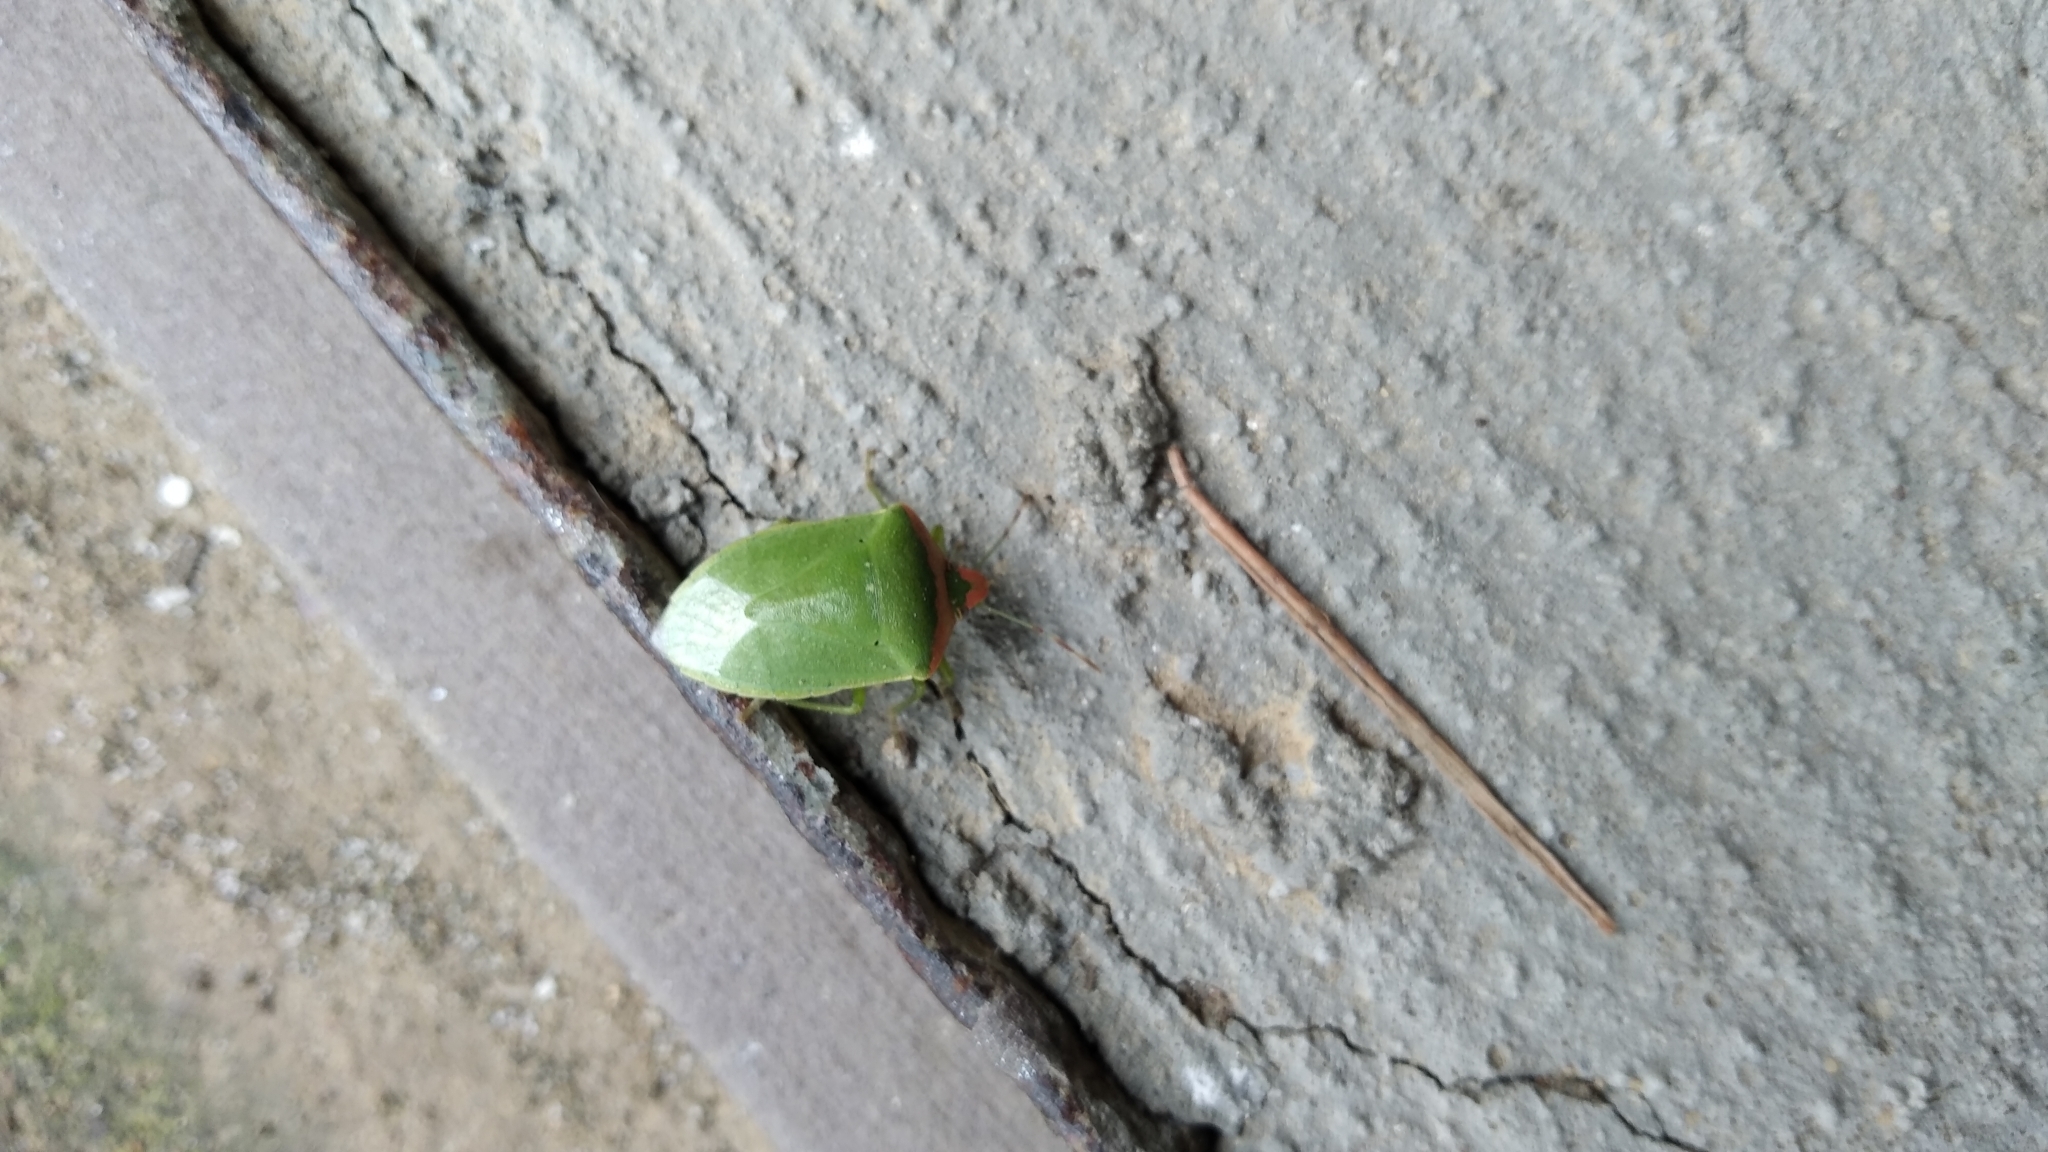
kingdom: Animalia
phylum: Arthropoda
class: Insecta
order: Hemiptera
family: Pentatomidae
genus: Nezara
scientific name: Nezara viridula
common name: Southern green stink bug
